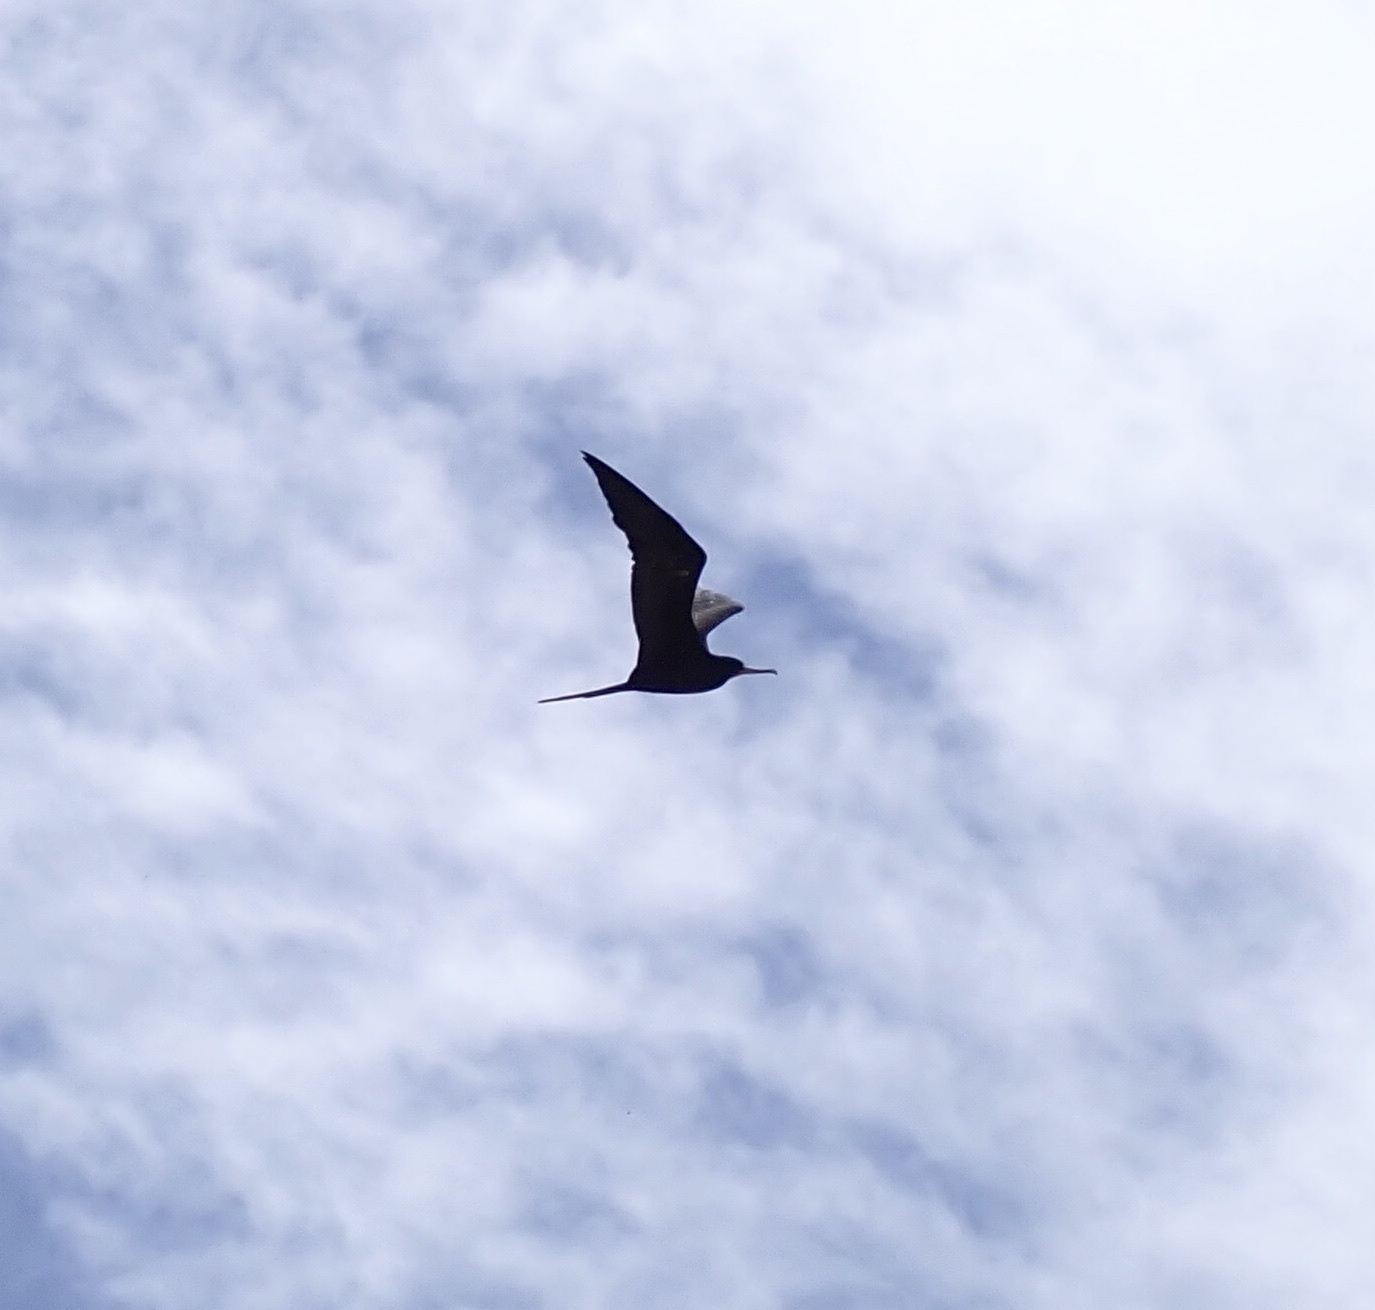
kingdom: Animalia
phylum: Chordata
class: Aves
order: Suliformes
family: Fregatidae
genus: Fregata
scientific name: Fregata magnificens
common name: Magnificent frigatebird
